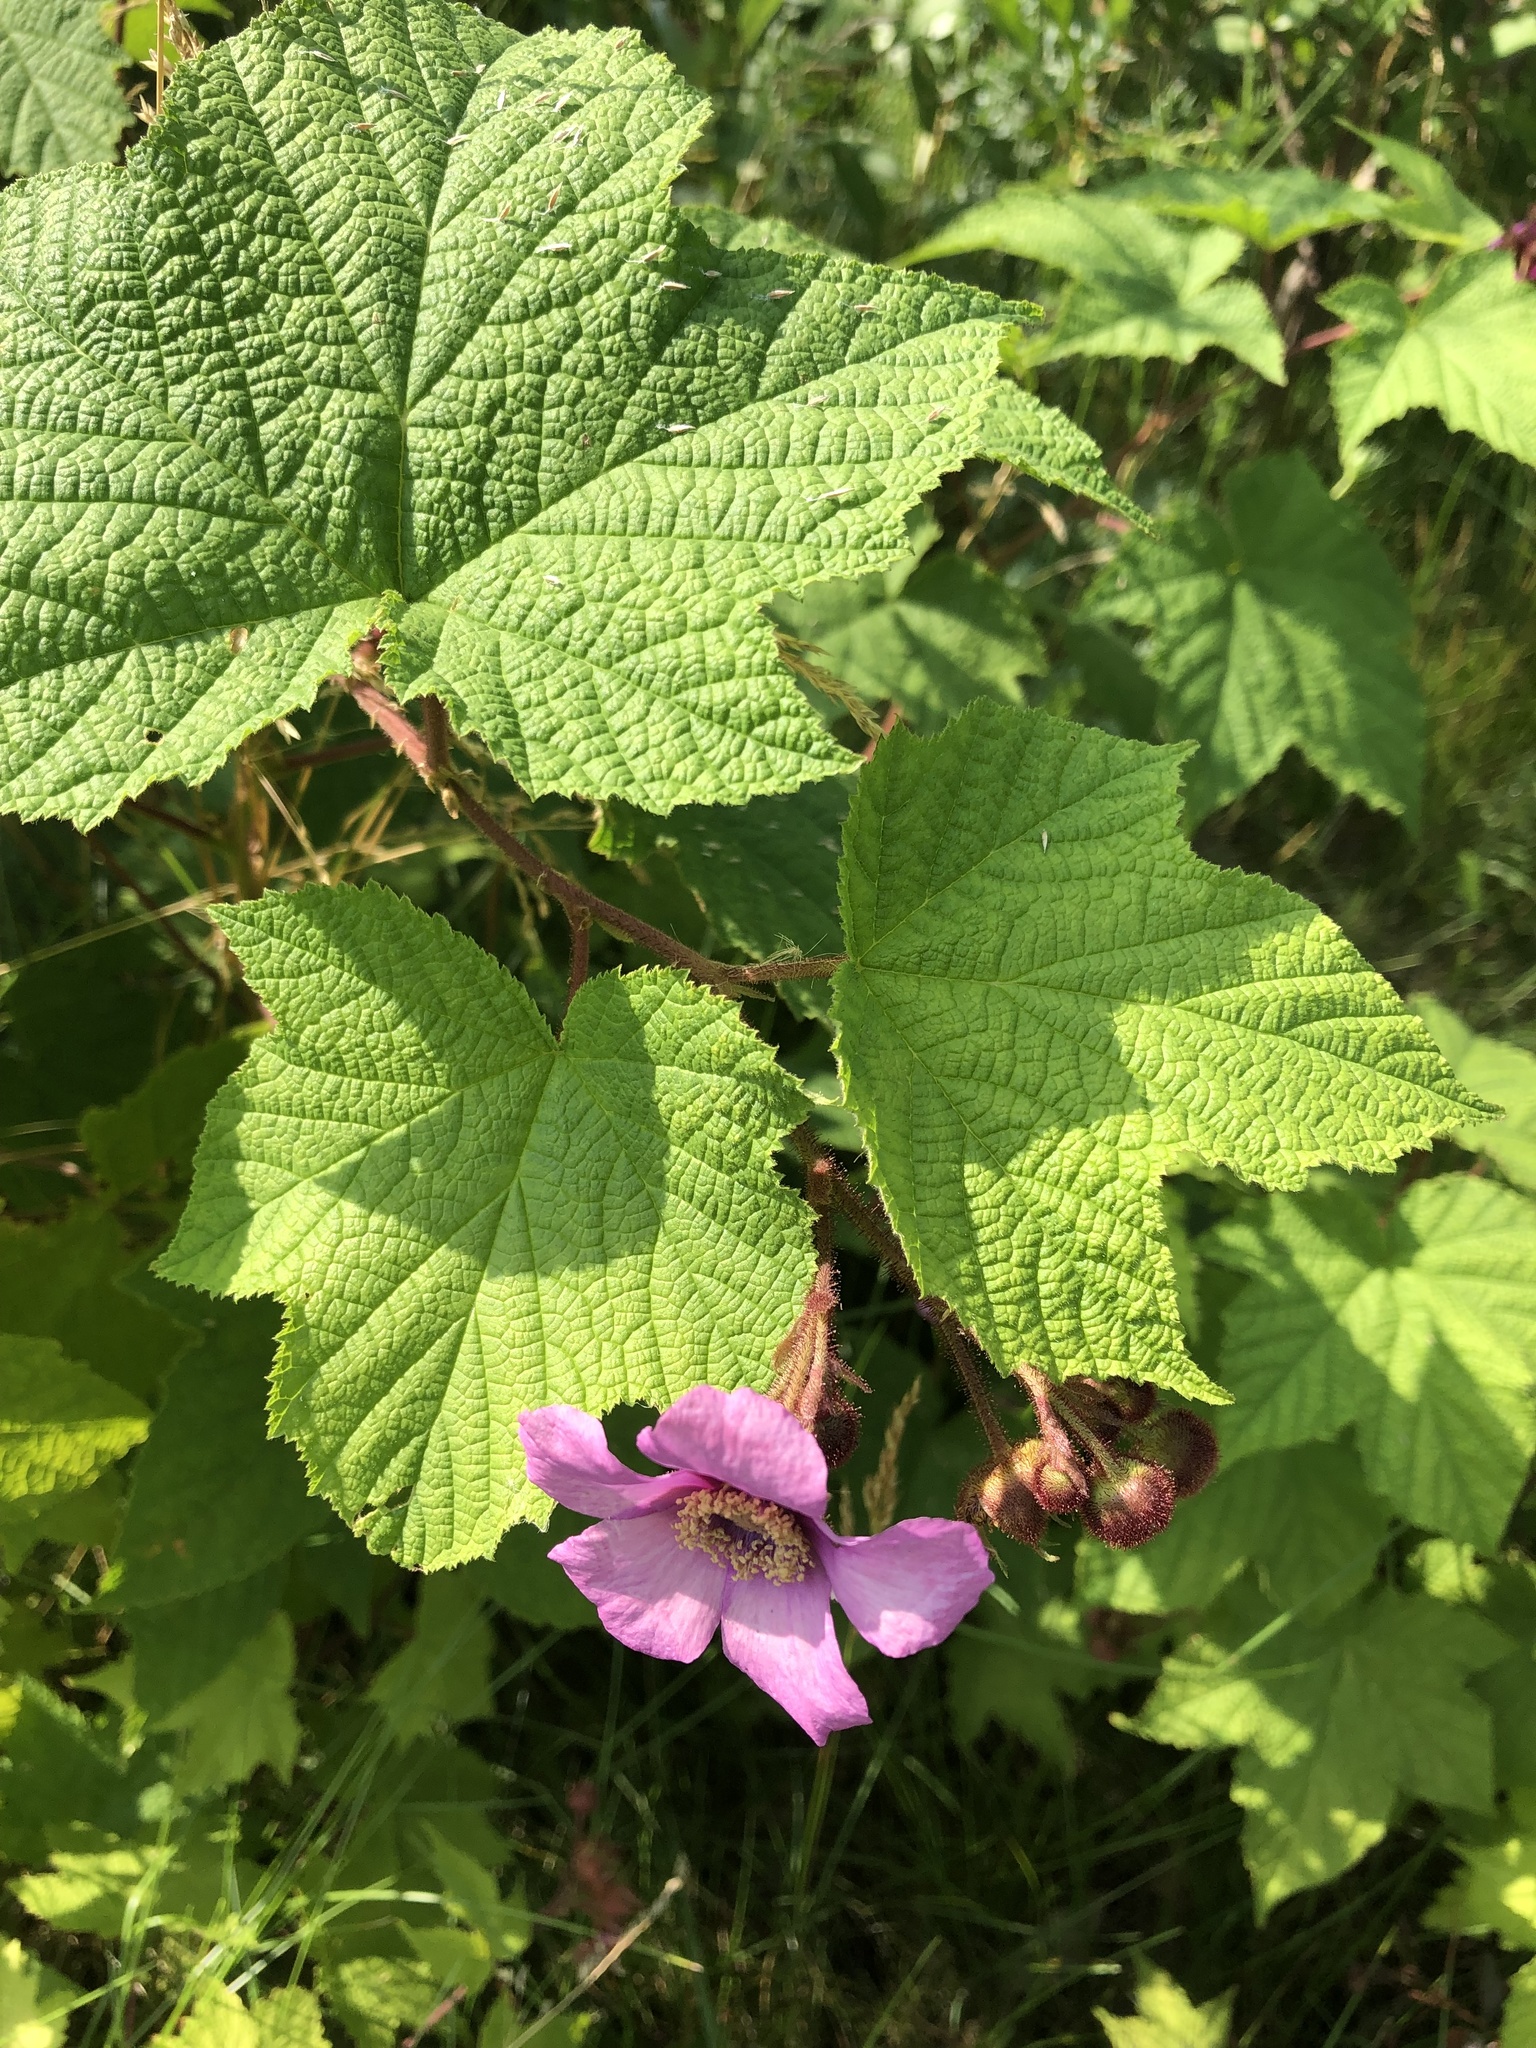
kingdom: Plantae
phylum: Tracheophyta
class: Magnoliopsida
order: Rosales
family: Rosaceae
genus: Rubus
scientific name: Rubus odoratus
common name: Purple-flowered raspberry
